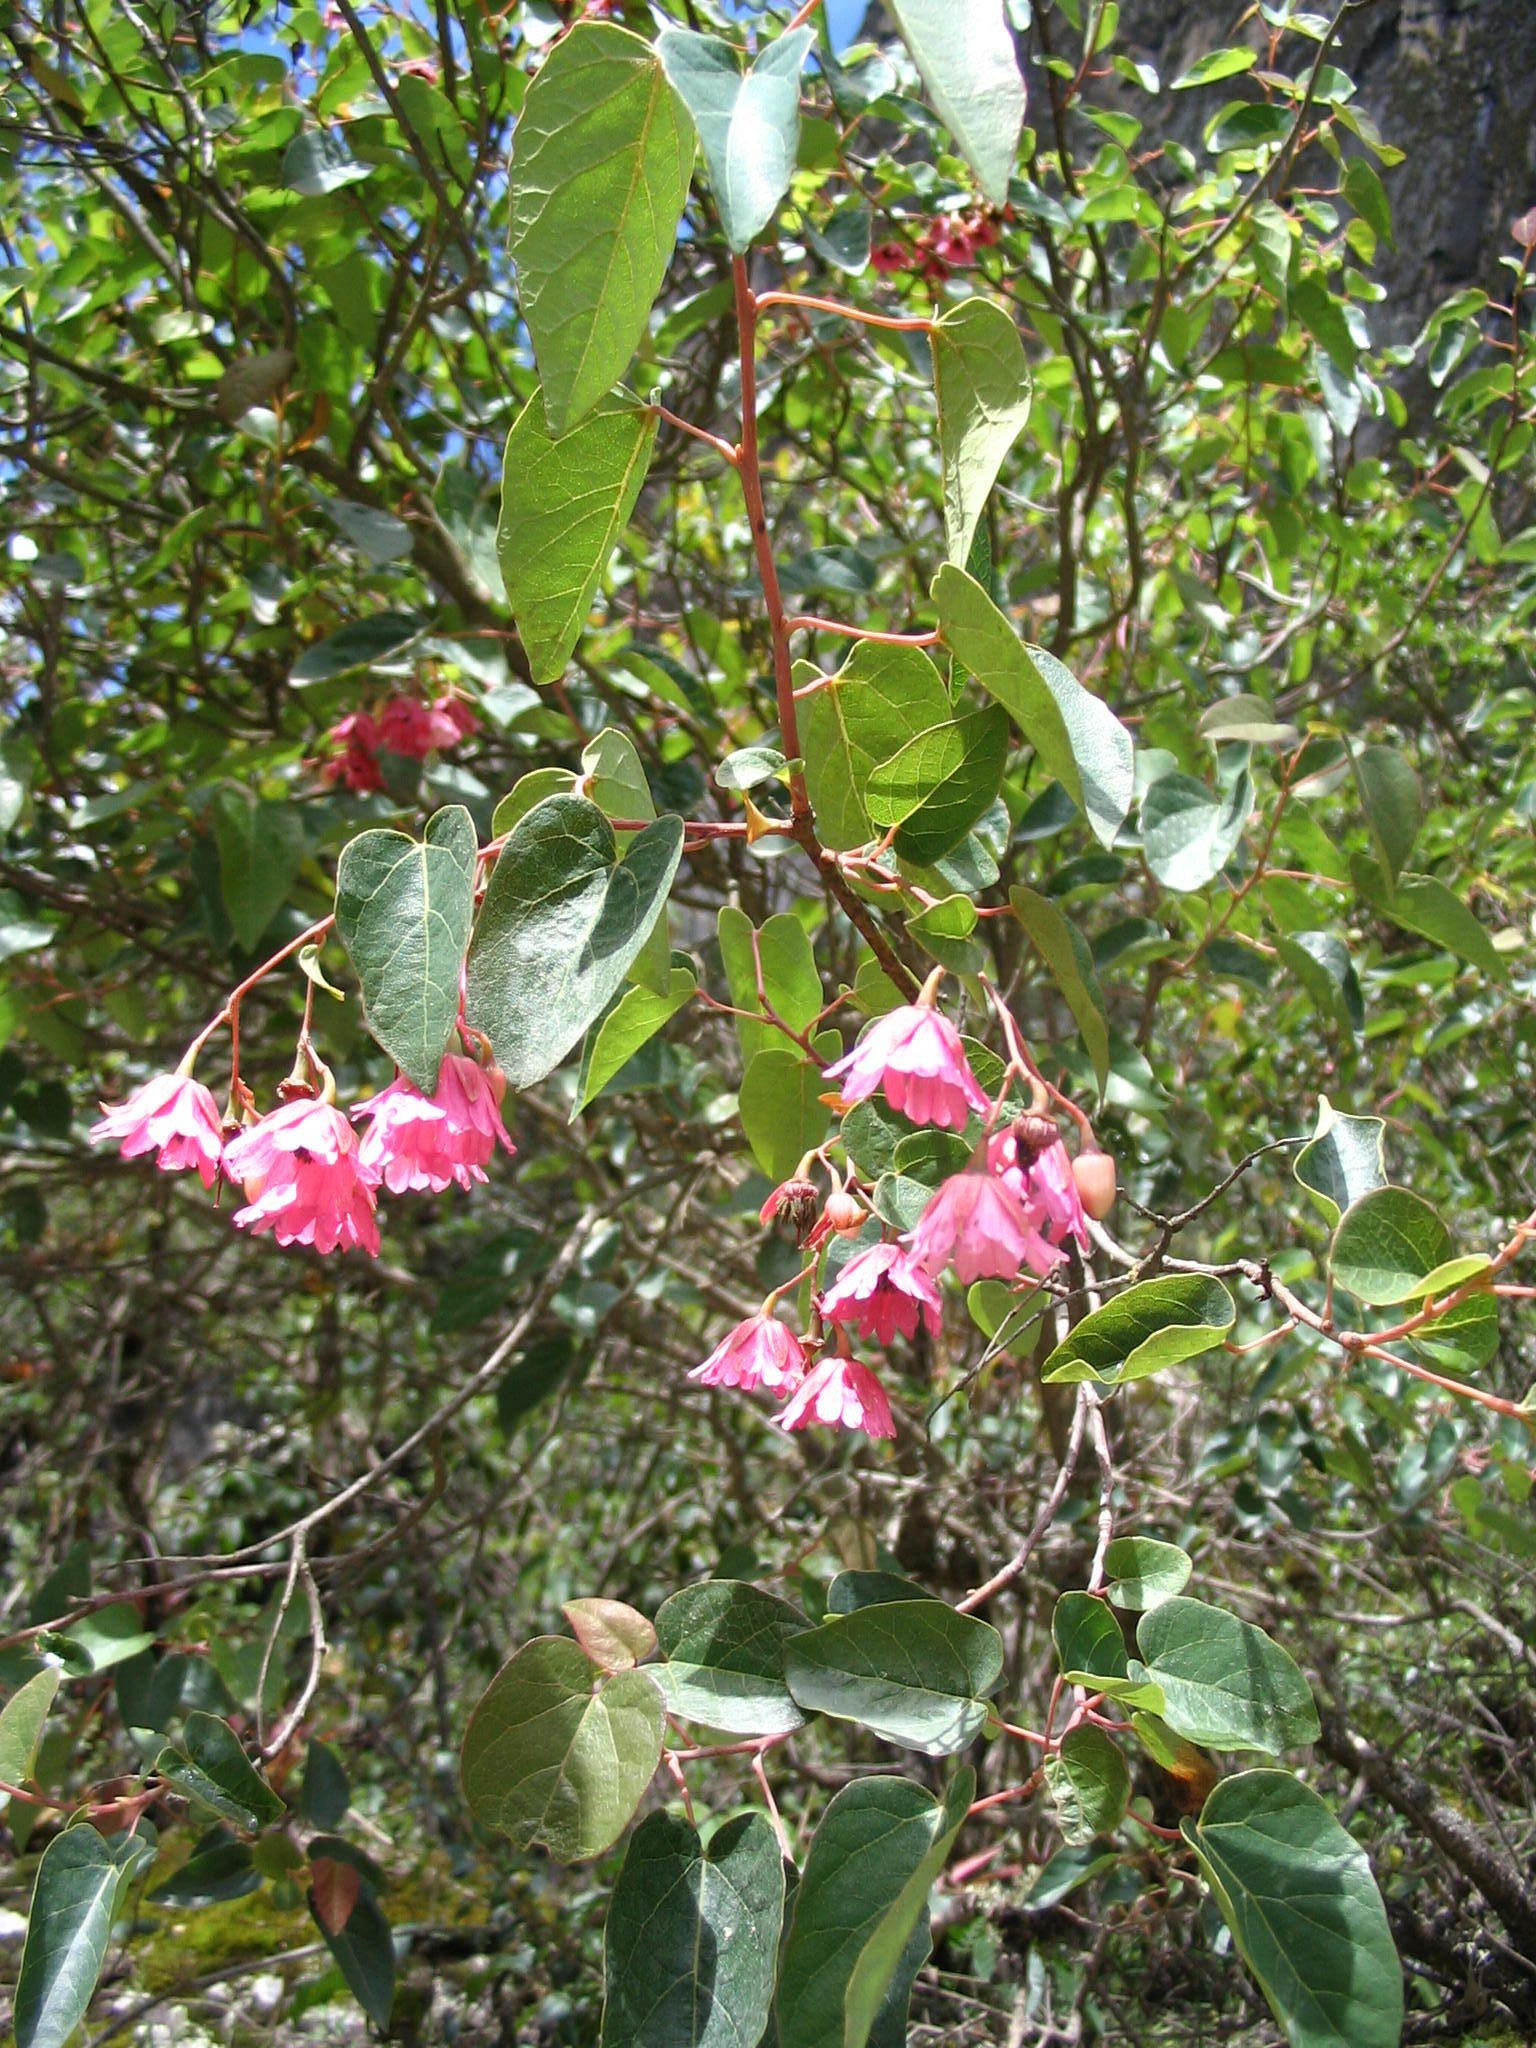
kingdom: Plantae
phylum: Tracheophyta
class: Magnoliopsida
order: Oxalidales
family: Elaeocarpaceae
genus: Vallea
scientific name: Vallea stipularis
